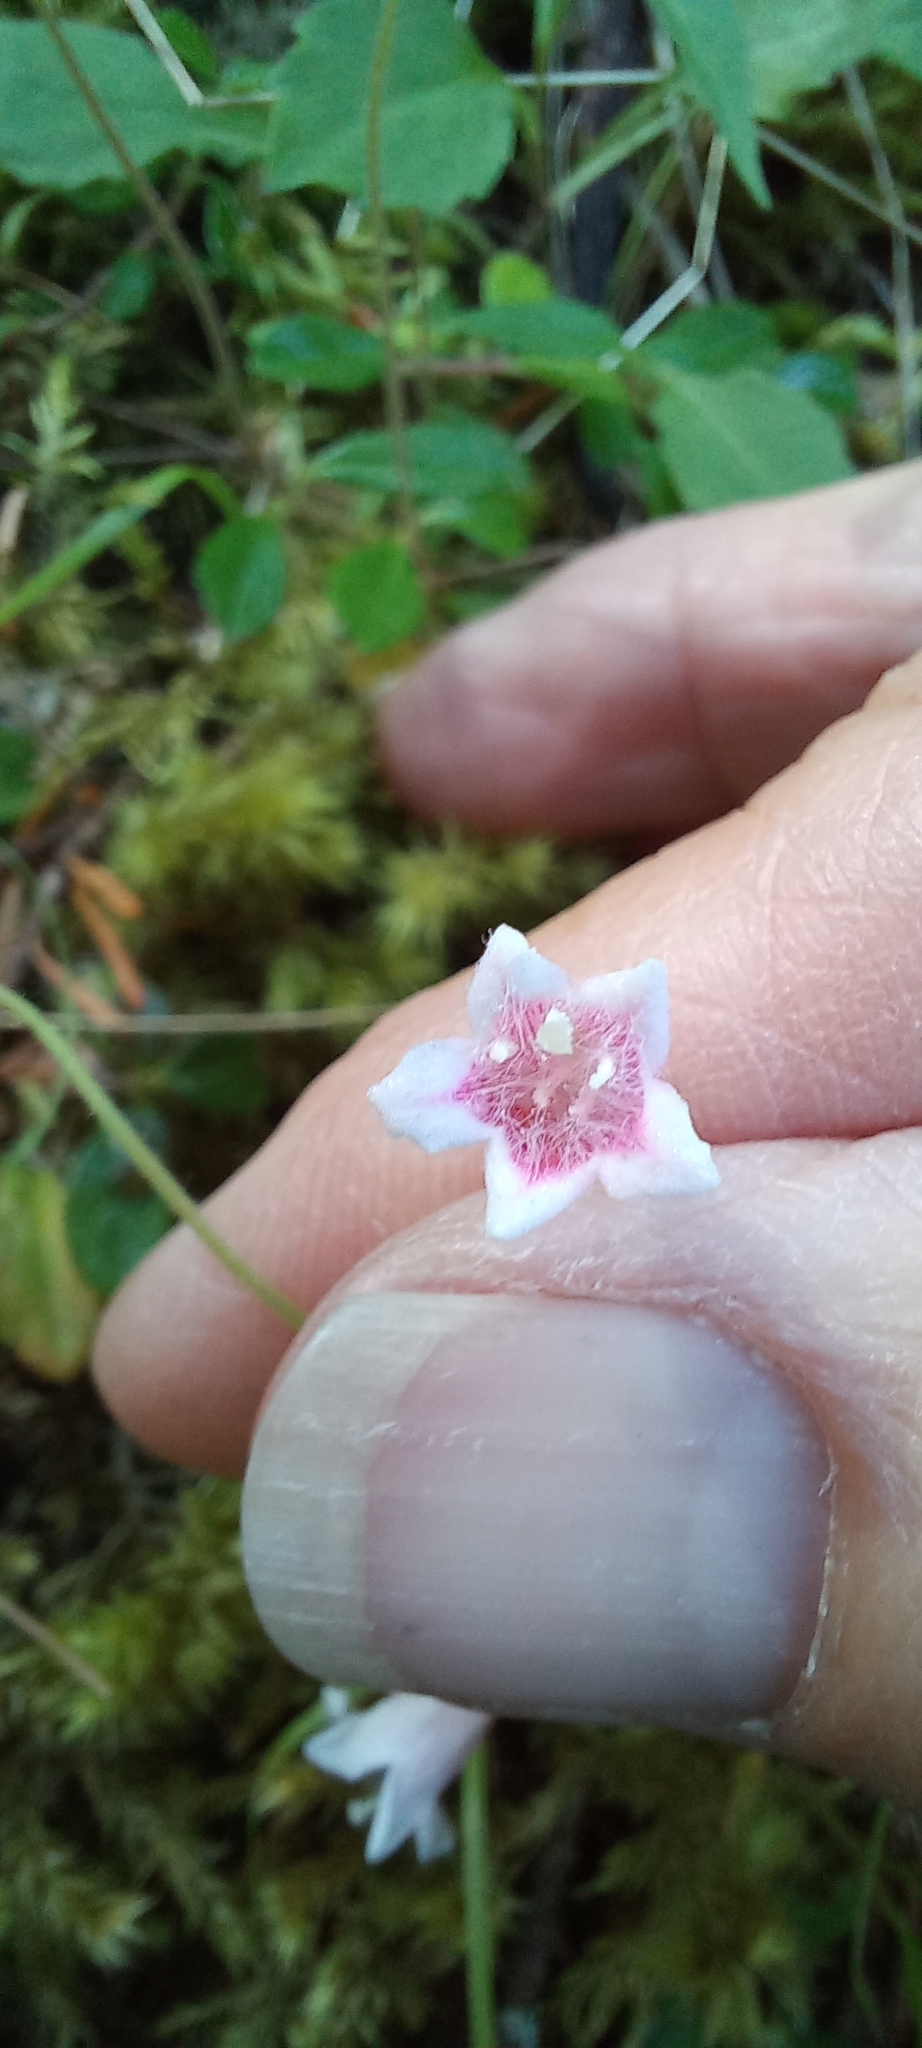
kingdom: Plantae
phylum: Tracheophyta
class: Magnoliopsida
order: Dipsacales
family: Caprifoliaceae
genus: Linnaea
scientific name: Linnaea borealis
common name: Twinflower
